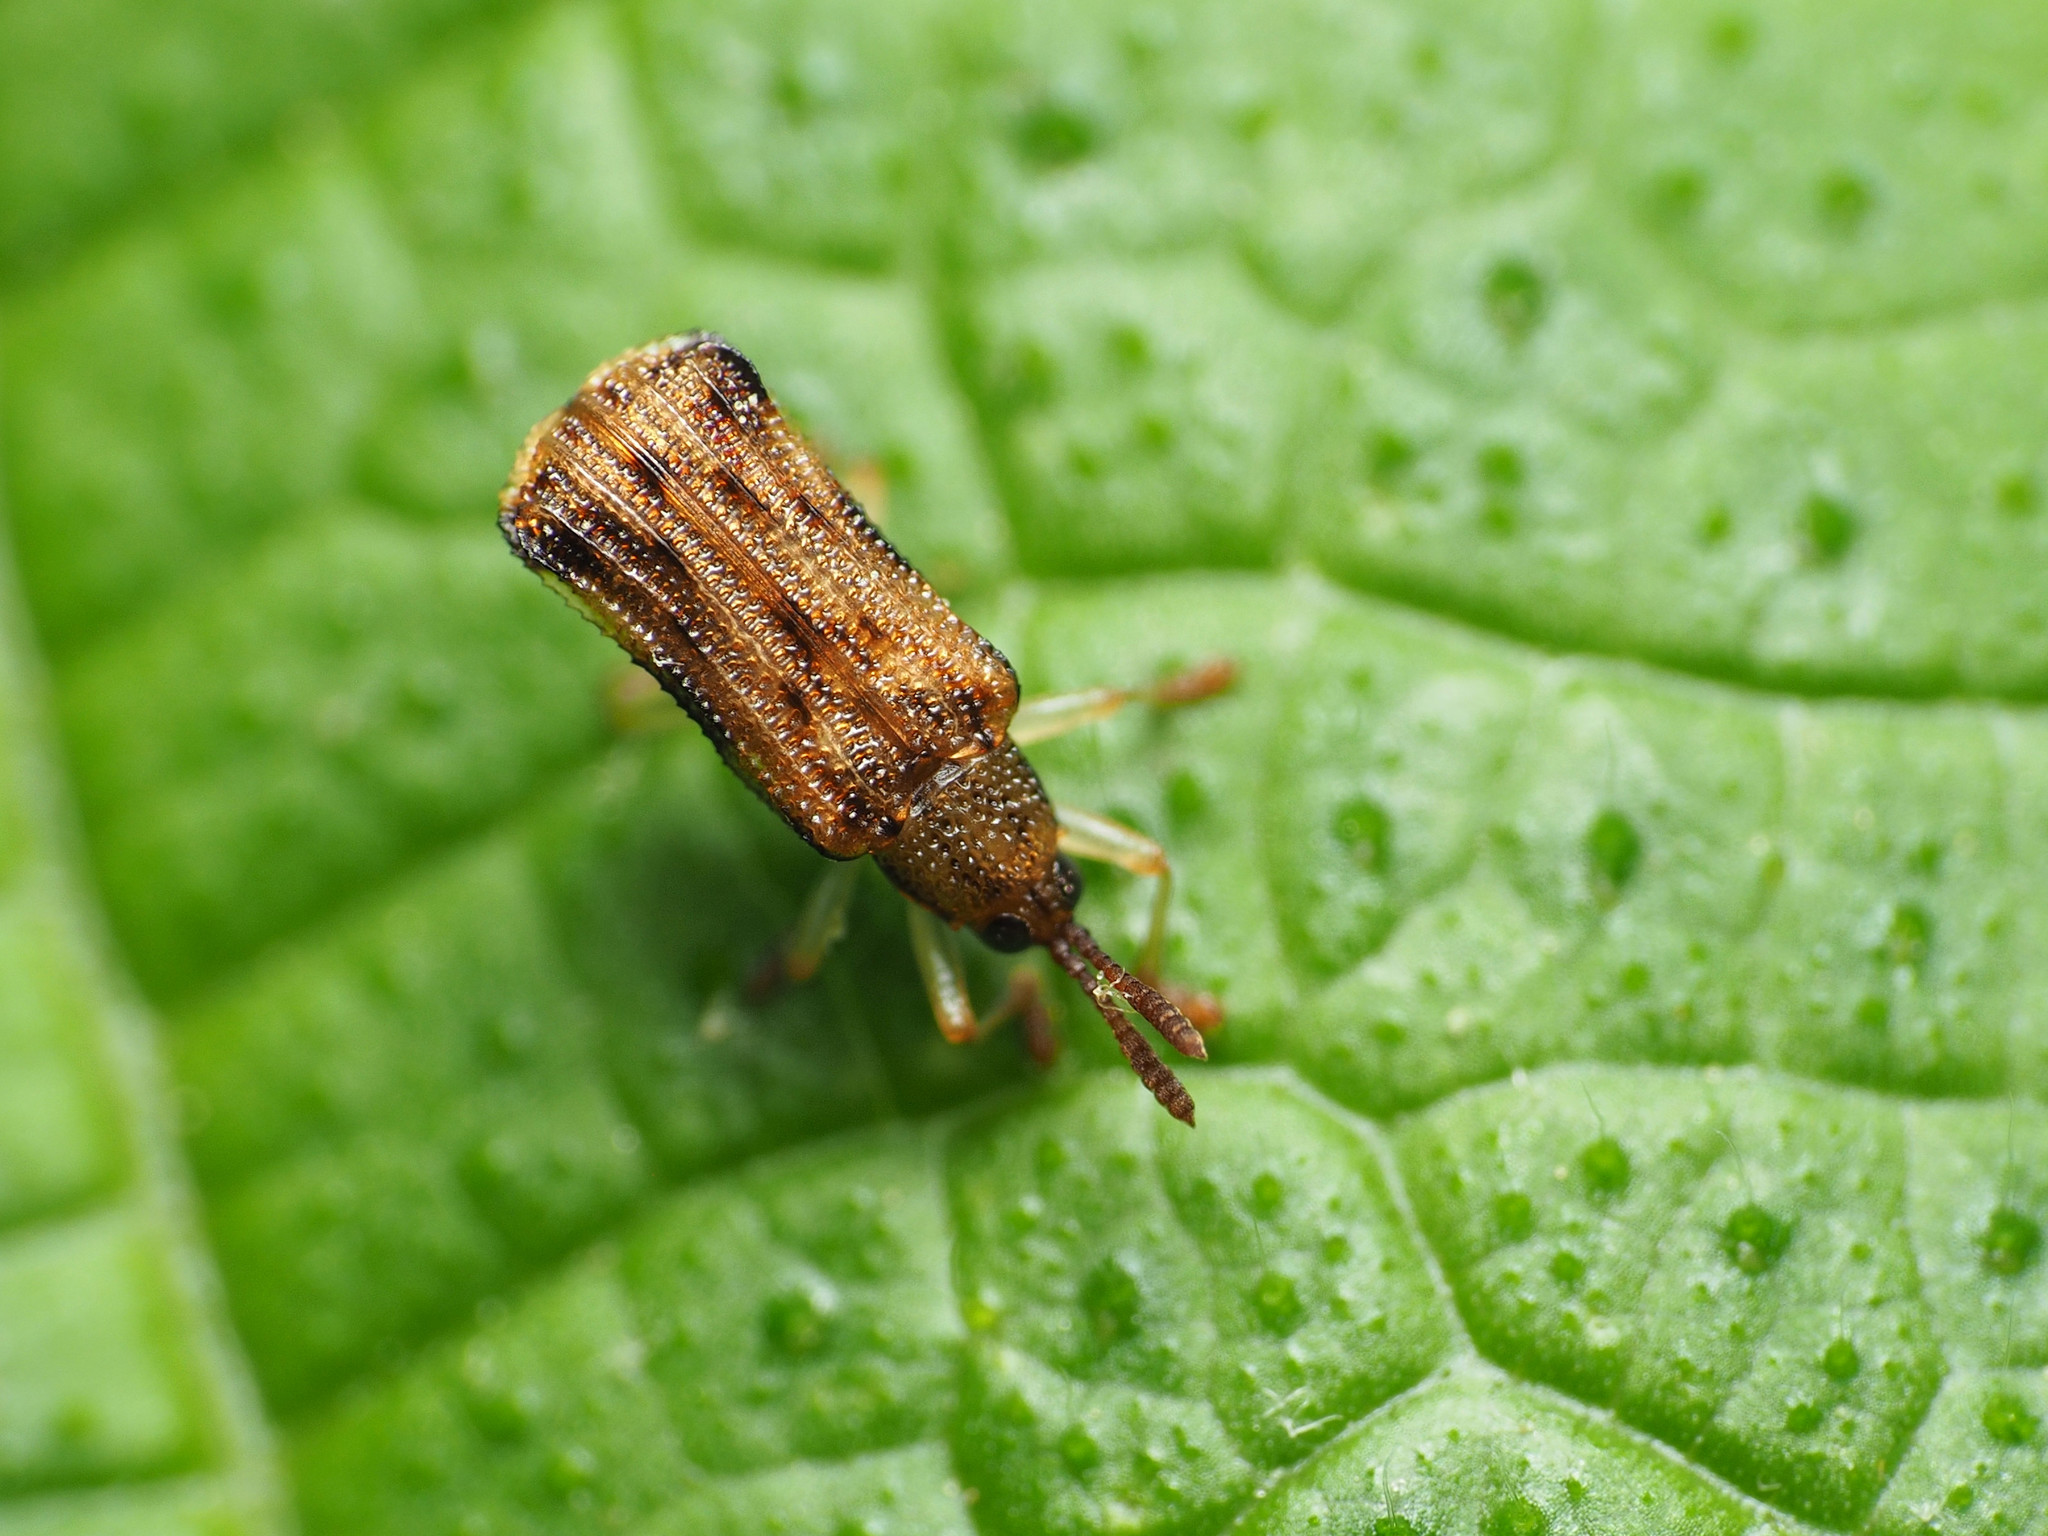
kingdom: Animalia
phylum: Arthropoda
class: Insecta
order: Coleoptera
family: Chrysomelidae
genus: Sumitrosis
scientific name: Sumitrosis rosea
